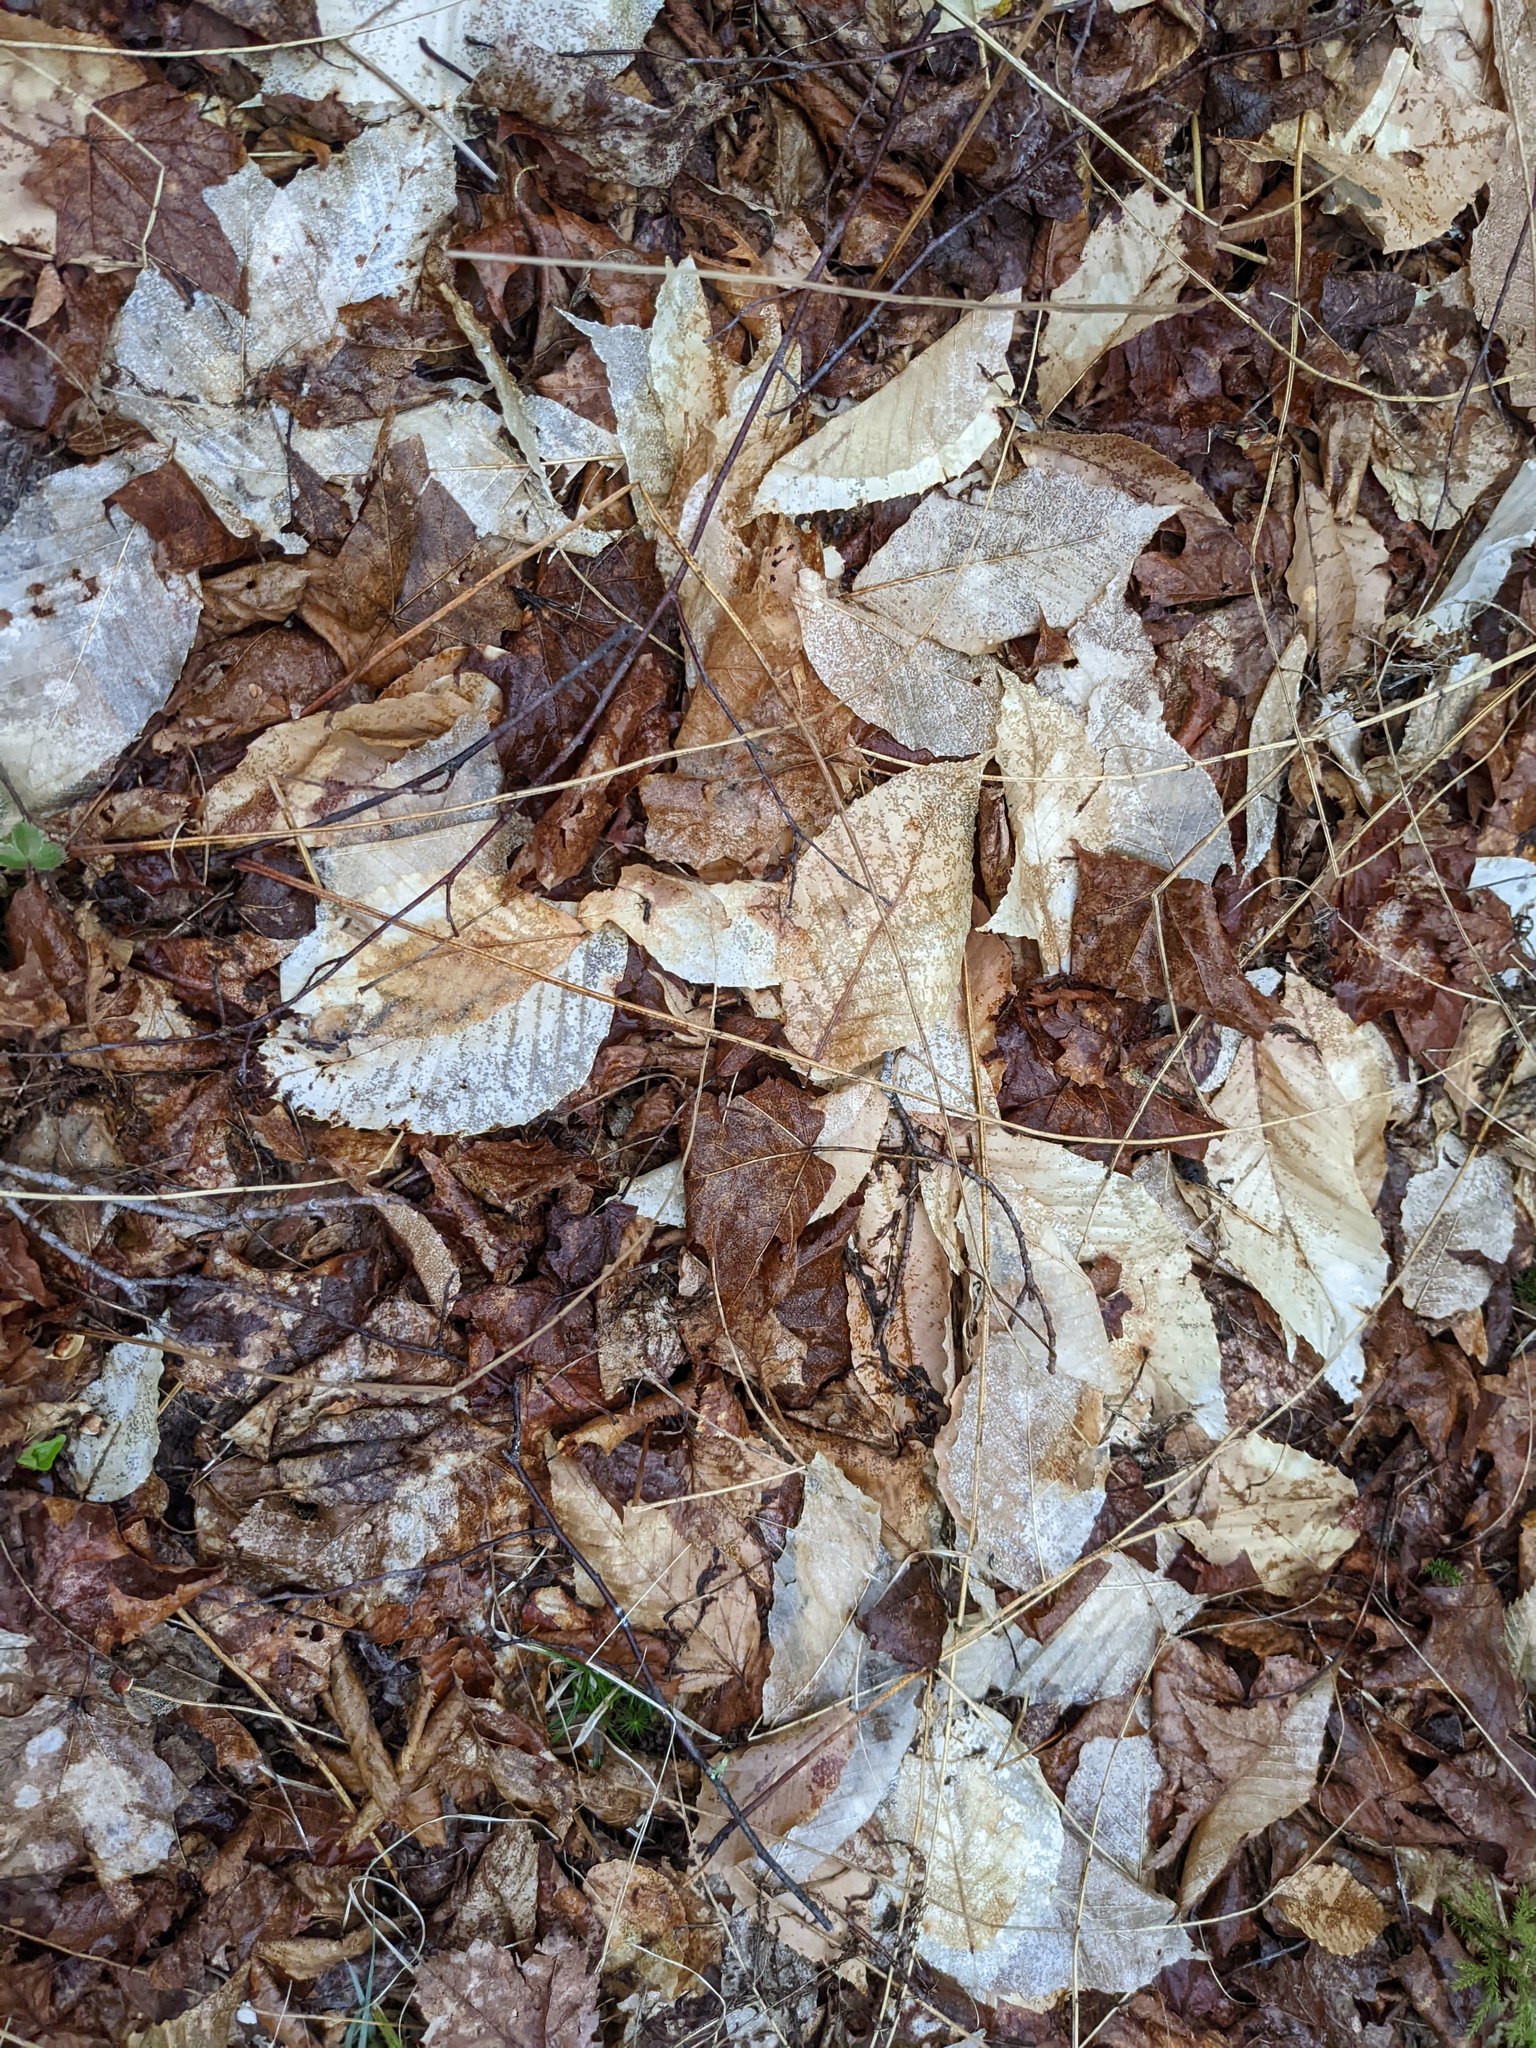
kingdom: Plantae
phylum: Tracheophyta
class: Magnoliopsida
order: Fagales
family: Fagaceae
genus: Fagus
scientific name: Fagus grandifolia
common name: American beech
